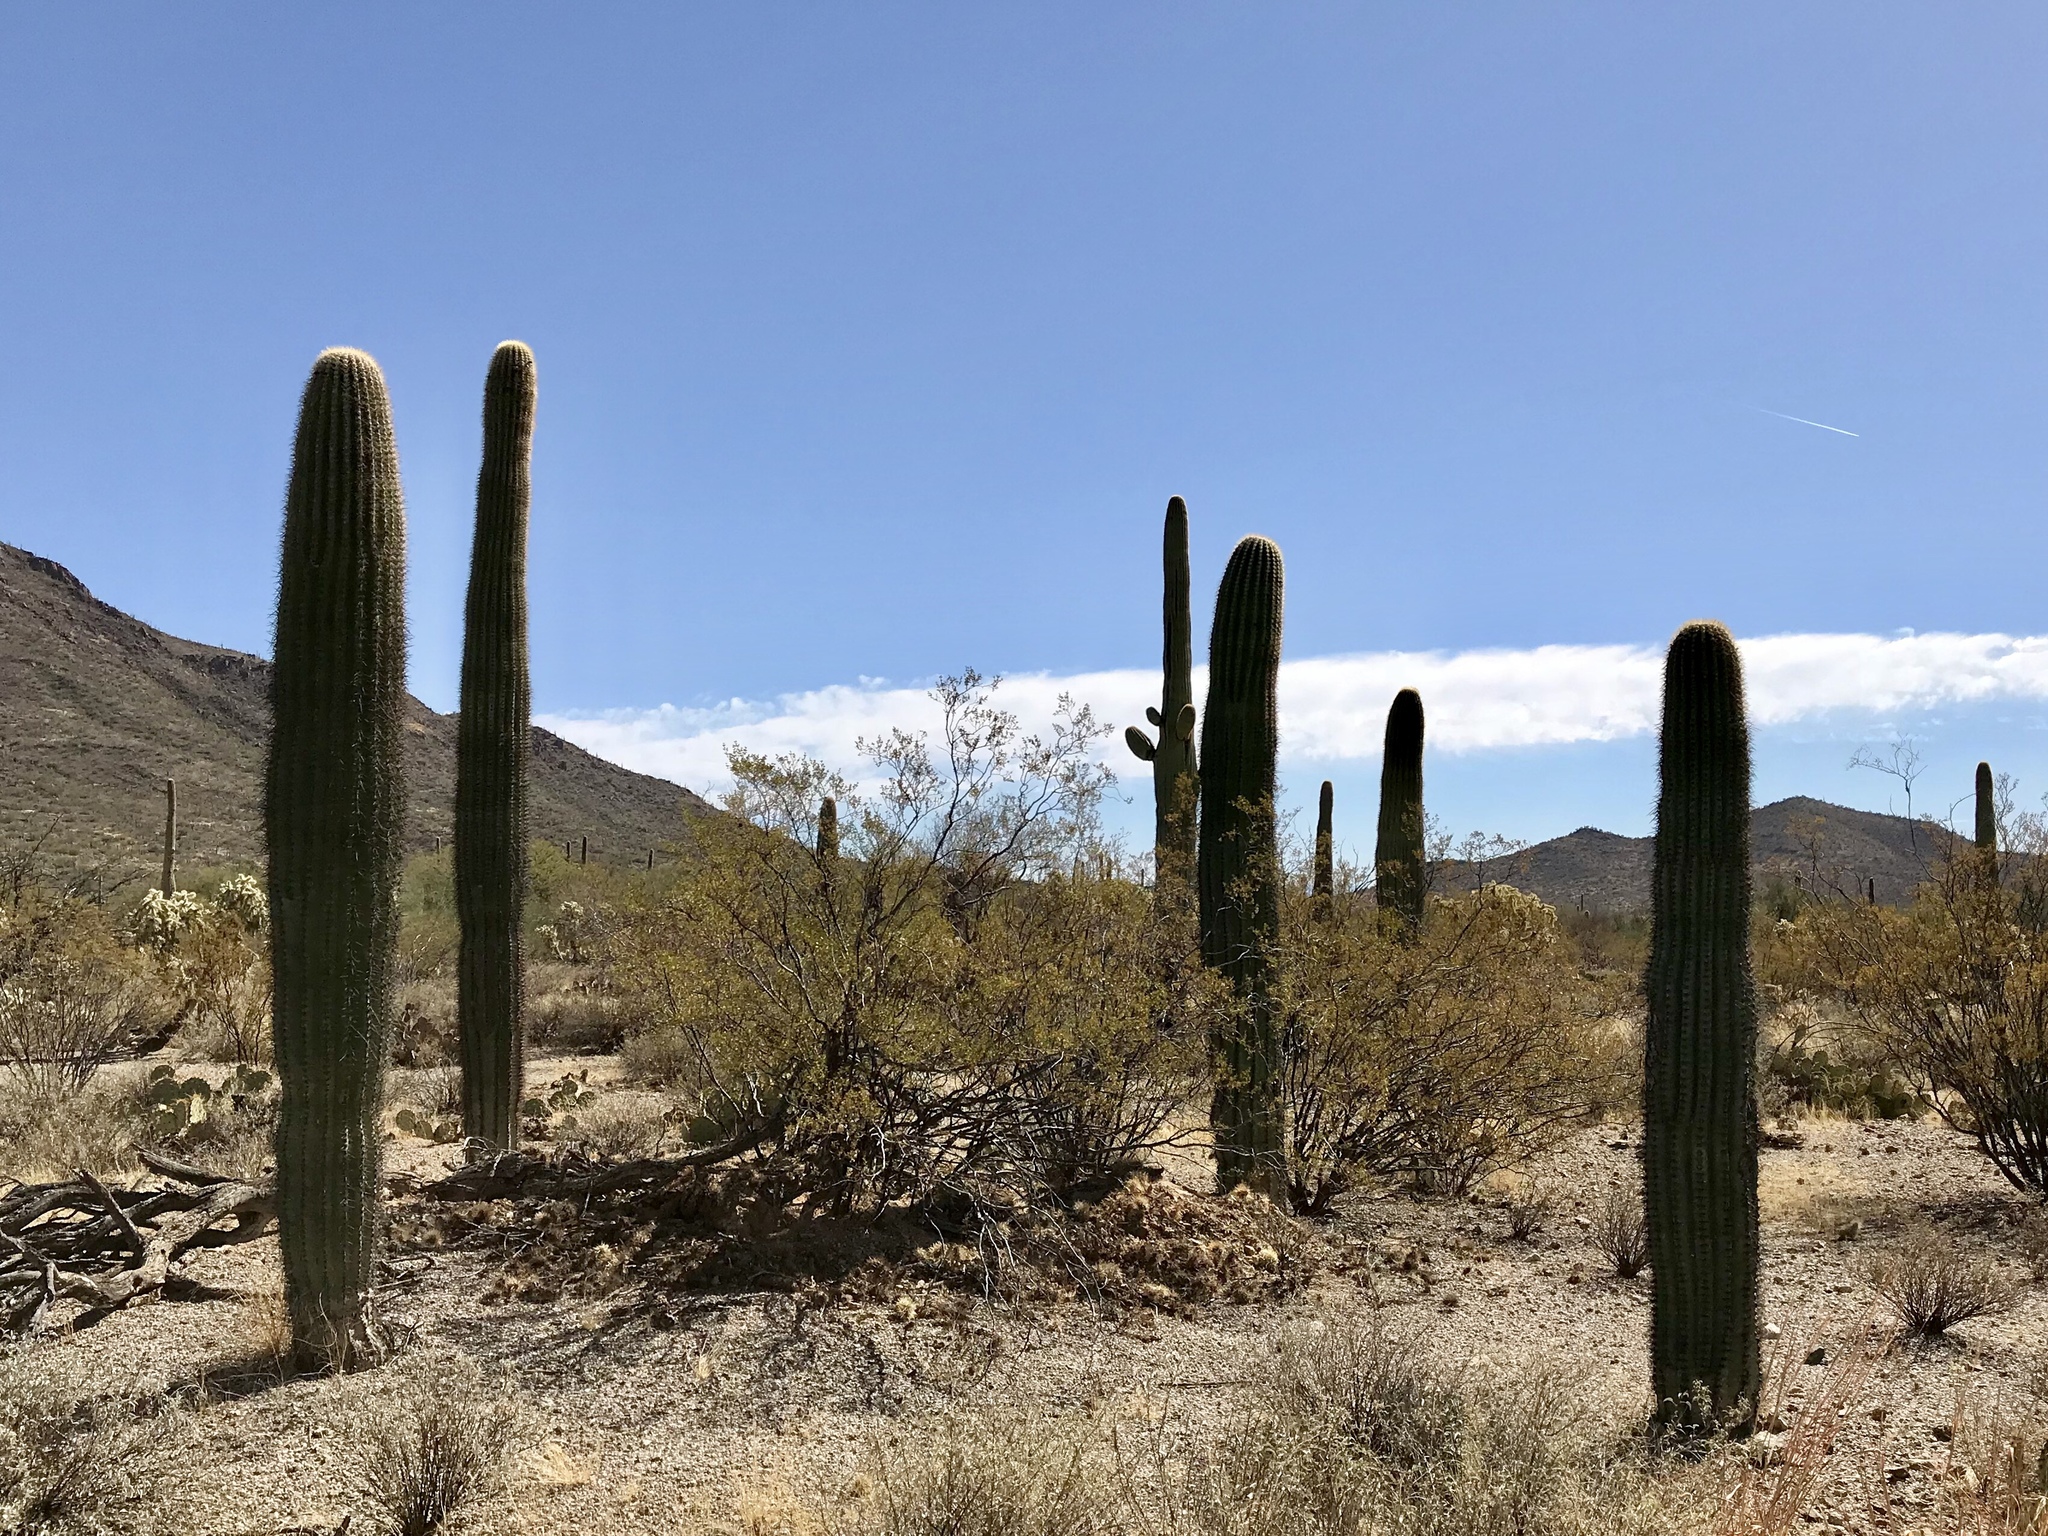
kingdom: Plantae
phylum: Tracheophyta
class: Magnoliopsida
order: Caryophyllales
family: Cactaceae
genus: Carnegiea
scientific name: Carnegiea gigantea
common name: Saguaro
